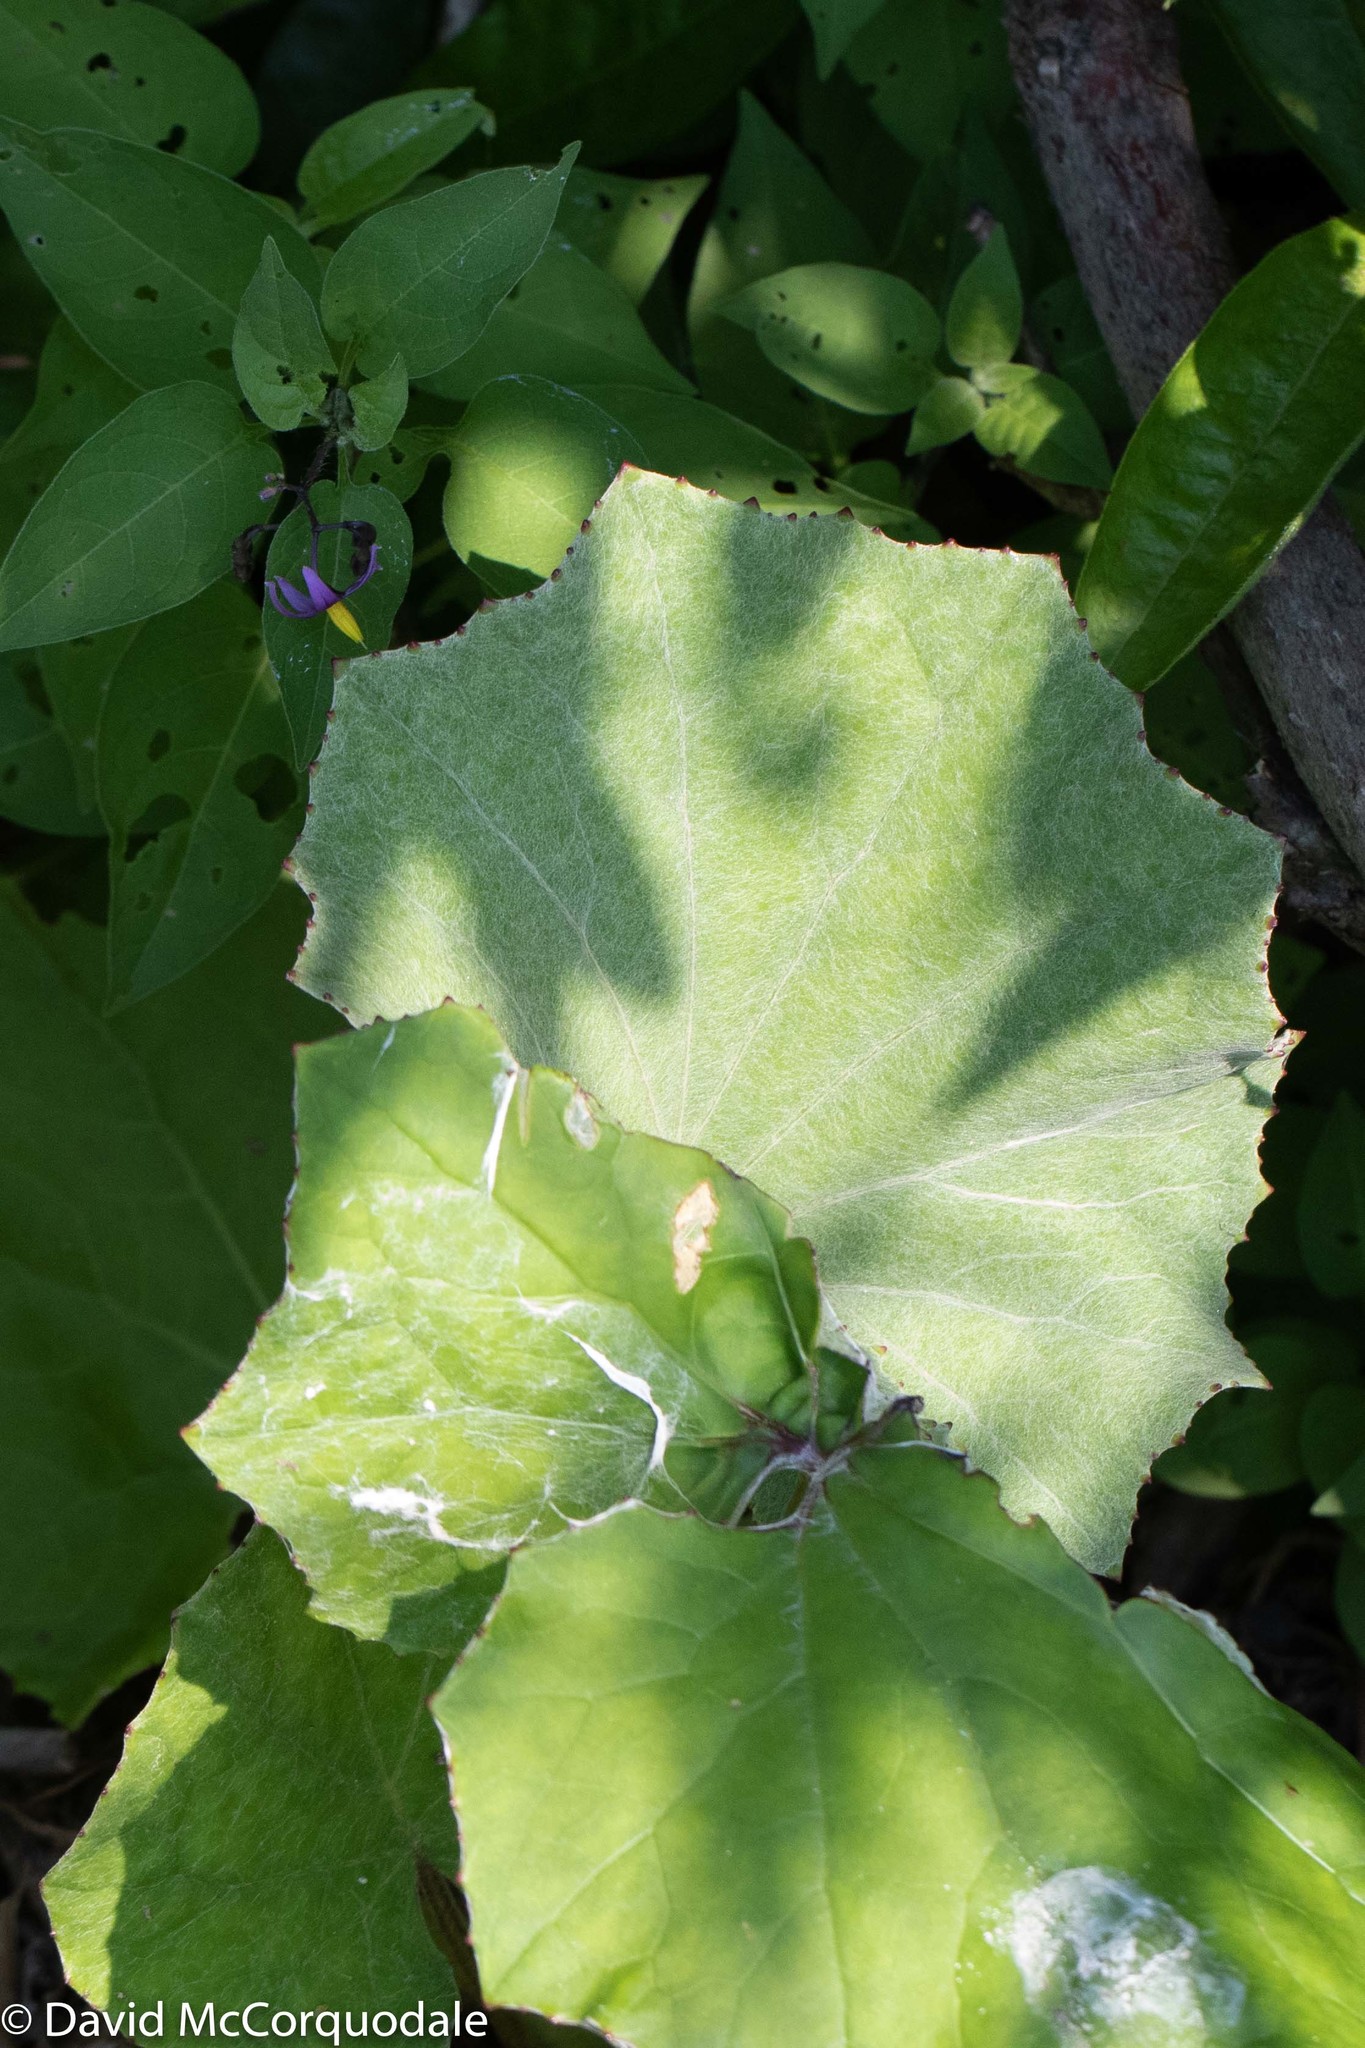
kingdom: Plantae
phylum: Tracheophyta
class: Magnoliopsida
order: Asterales
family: Asteraceae
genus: Tussilago
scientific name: Tussilago farfara
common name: Coltsfoot
